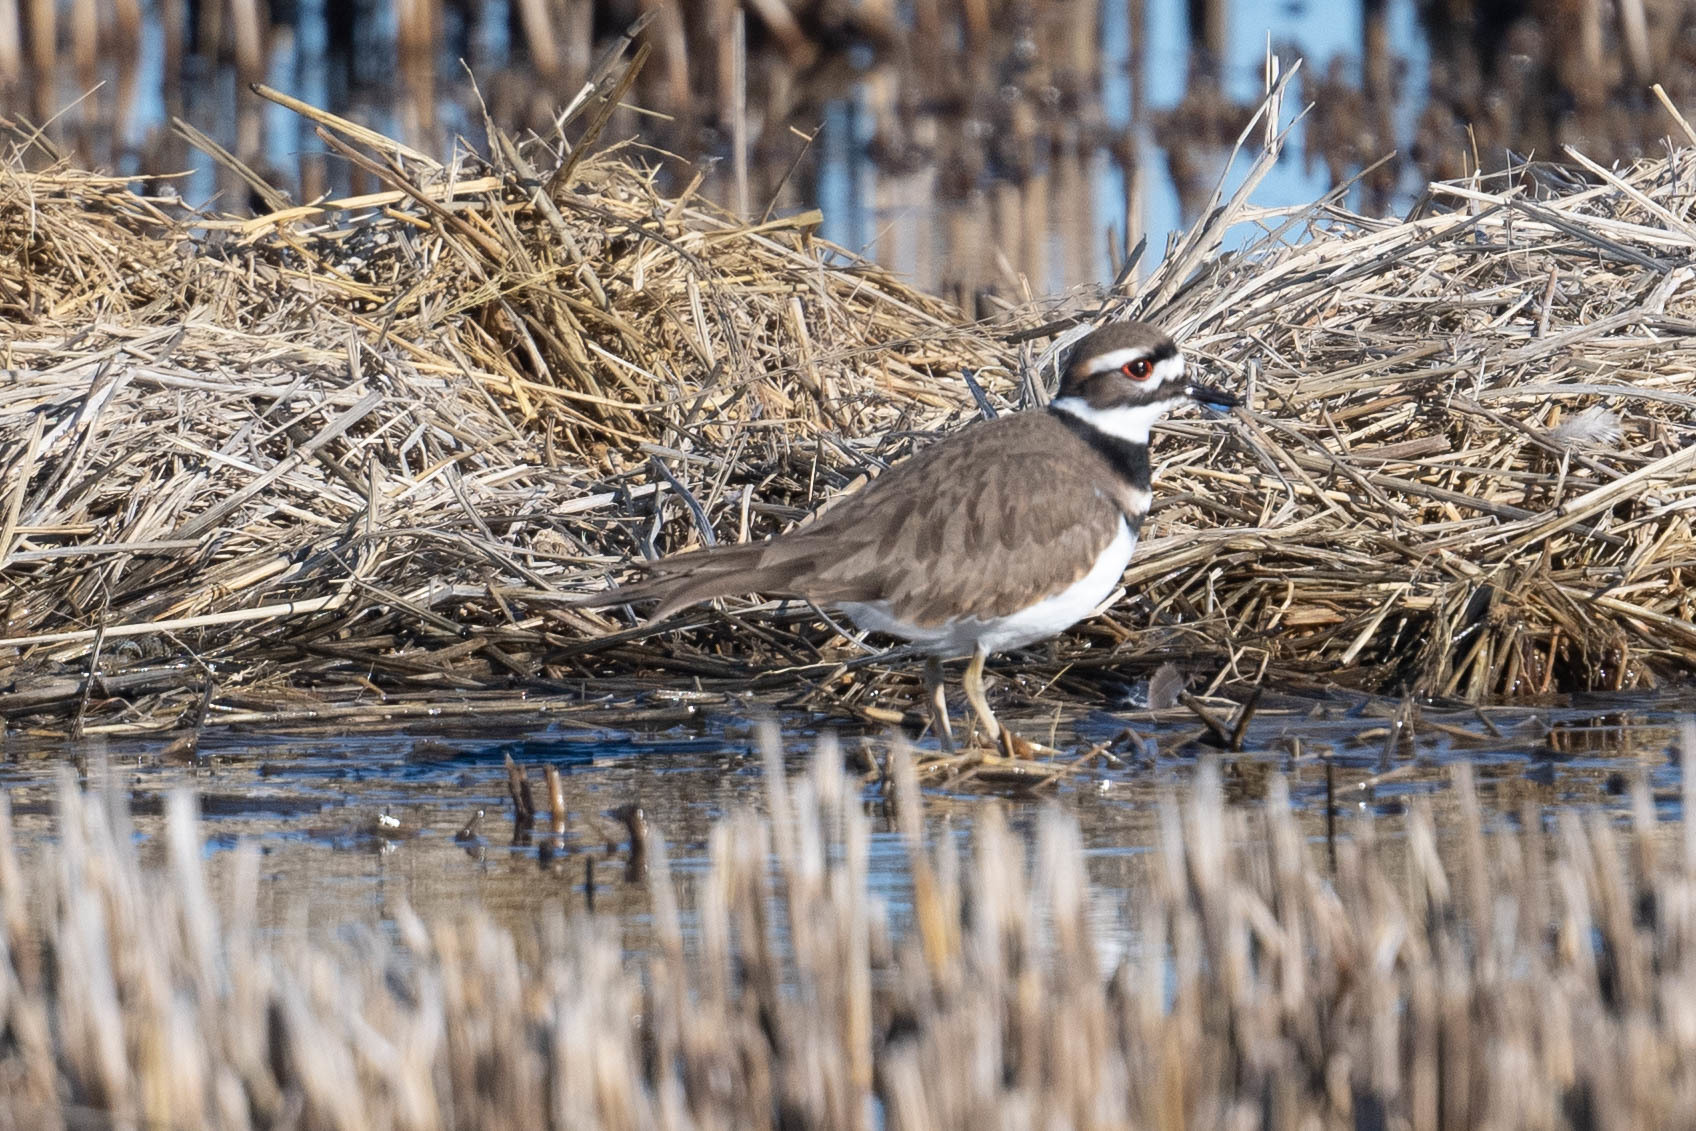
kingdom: Animalia
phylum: Chordata
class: Aves
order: Charadriiformes
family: Charadriidae
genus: Charadrius
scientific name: Charadrius vociferus
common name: Killdeer
